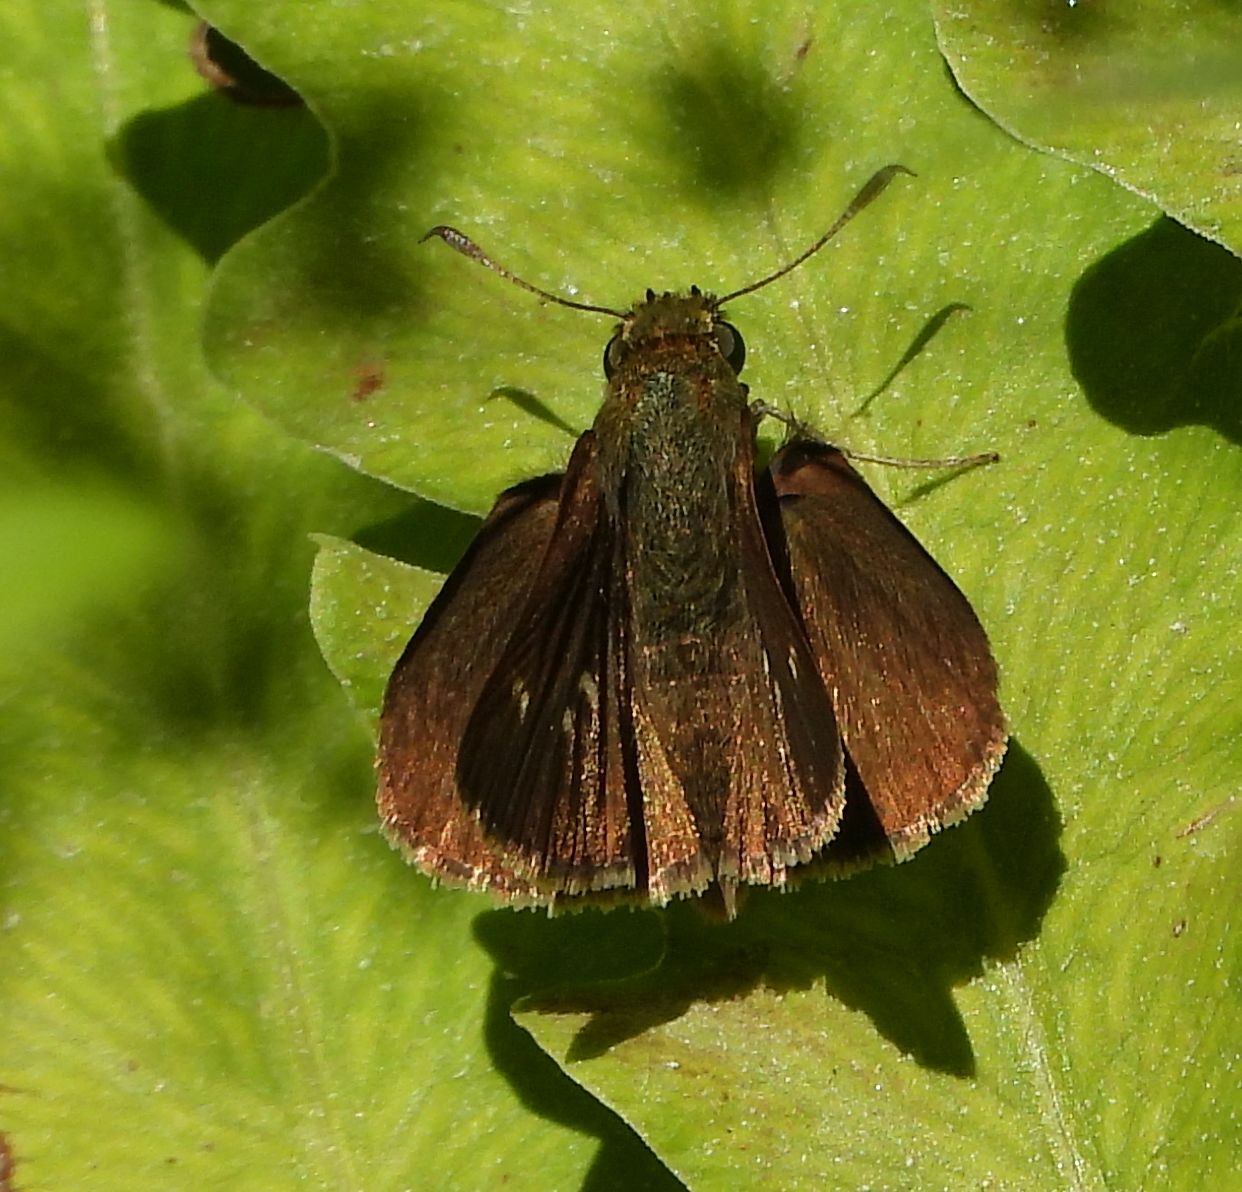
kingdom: Animalia
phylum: Arthropoda
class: Insecta
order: Lepidoptera
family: Hesperiidae
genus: Euphyes
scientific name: Euphyes vestris
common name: Dun skipper
